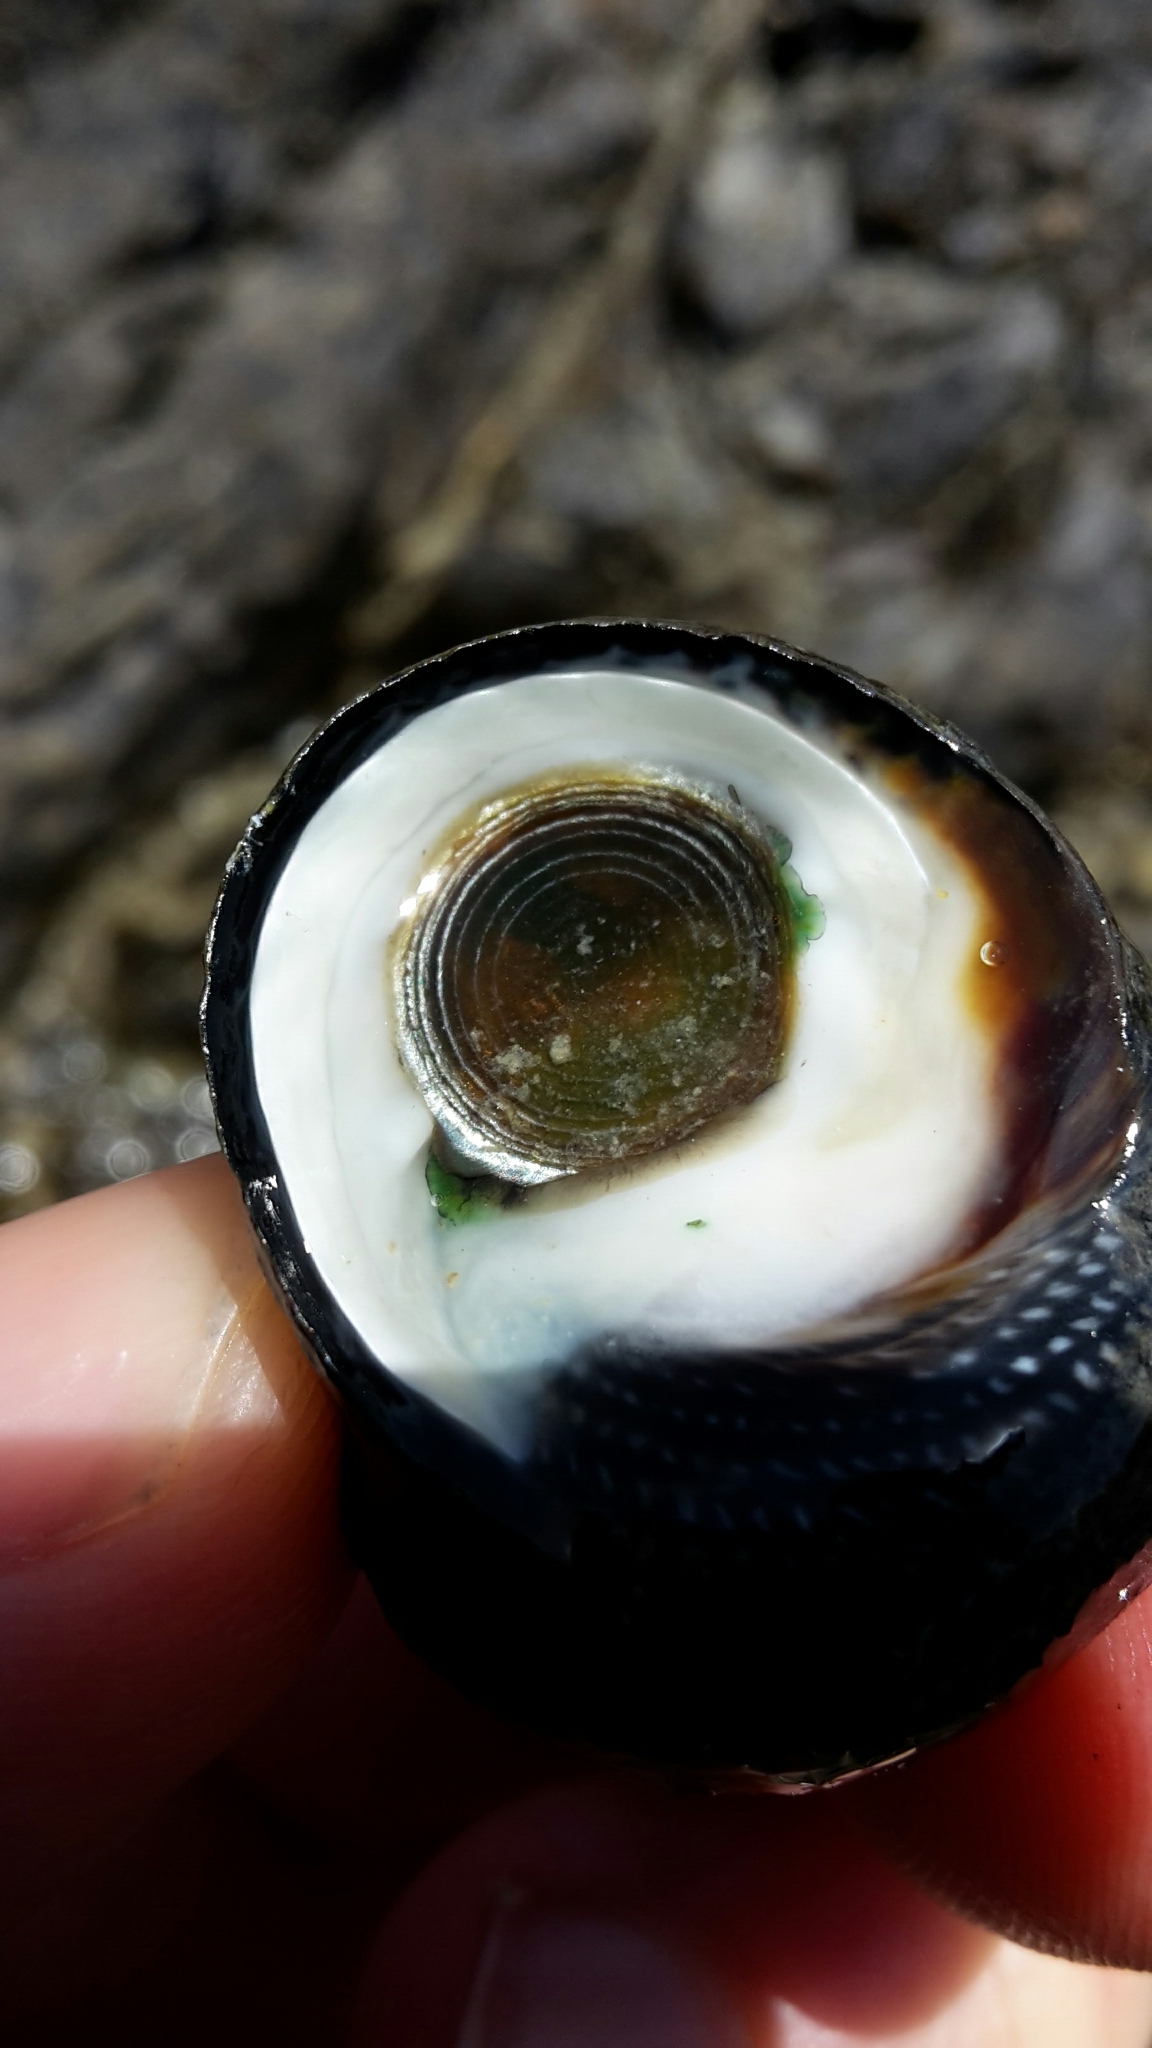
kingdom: Animalia
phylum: Mollusca
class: Gastropoda
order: Trochida
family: Trochidae
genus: Diloma
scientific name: Diloma aethiops
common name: Scorched monodont
